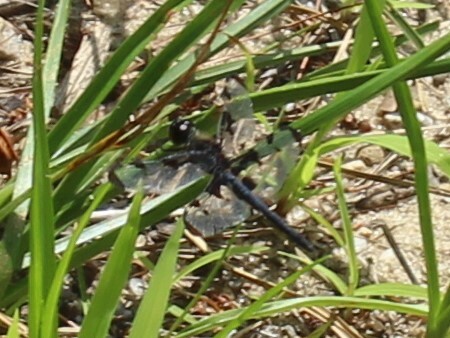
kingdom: Animalia
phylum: Arthropoda
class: Insecta
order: Odonata
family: Libellulidae
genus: Celithemis
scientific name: Celithemis fasciata
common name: Banded pennant
